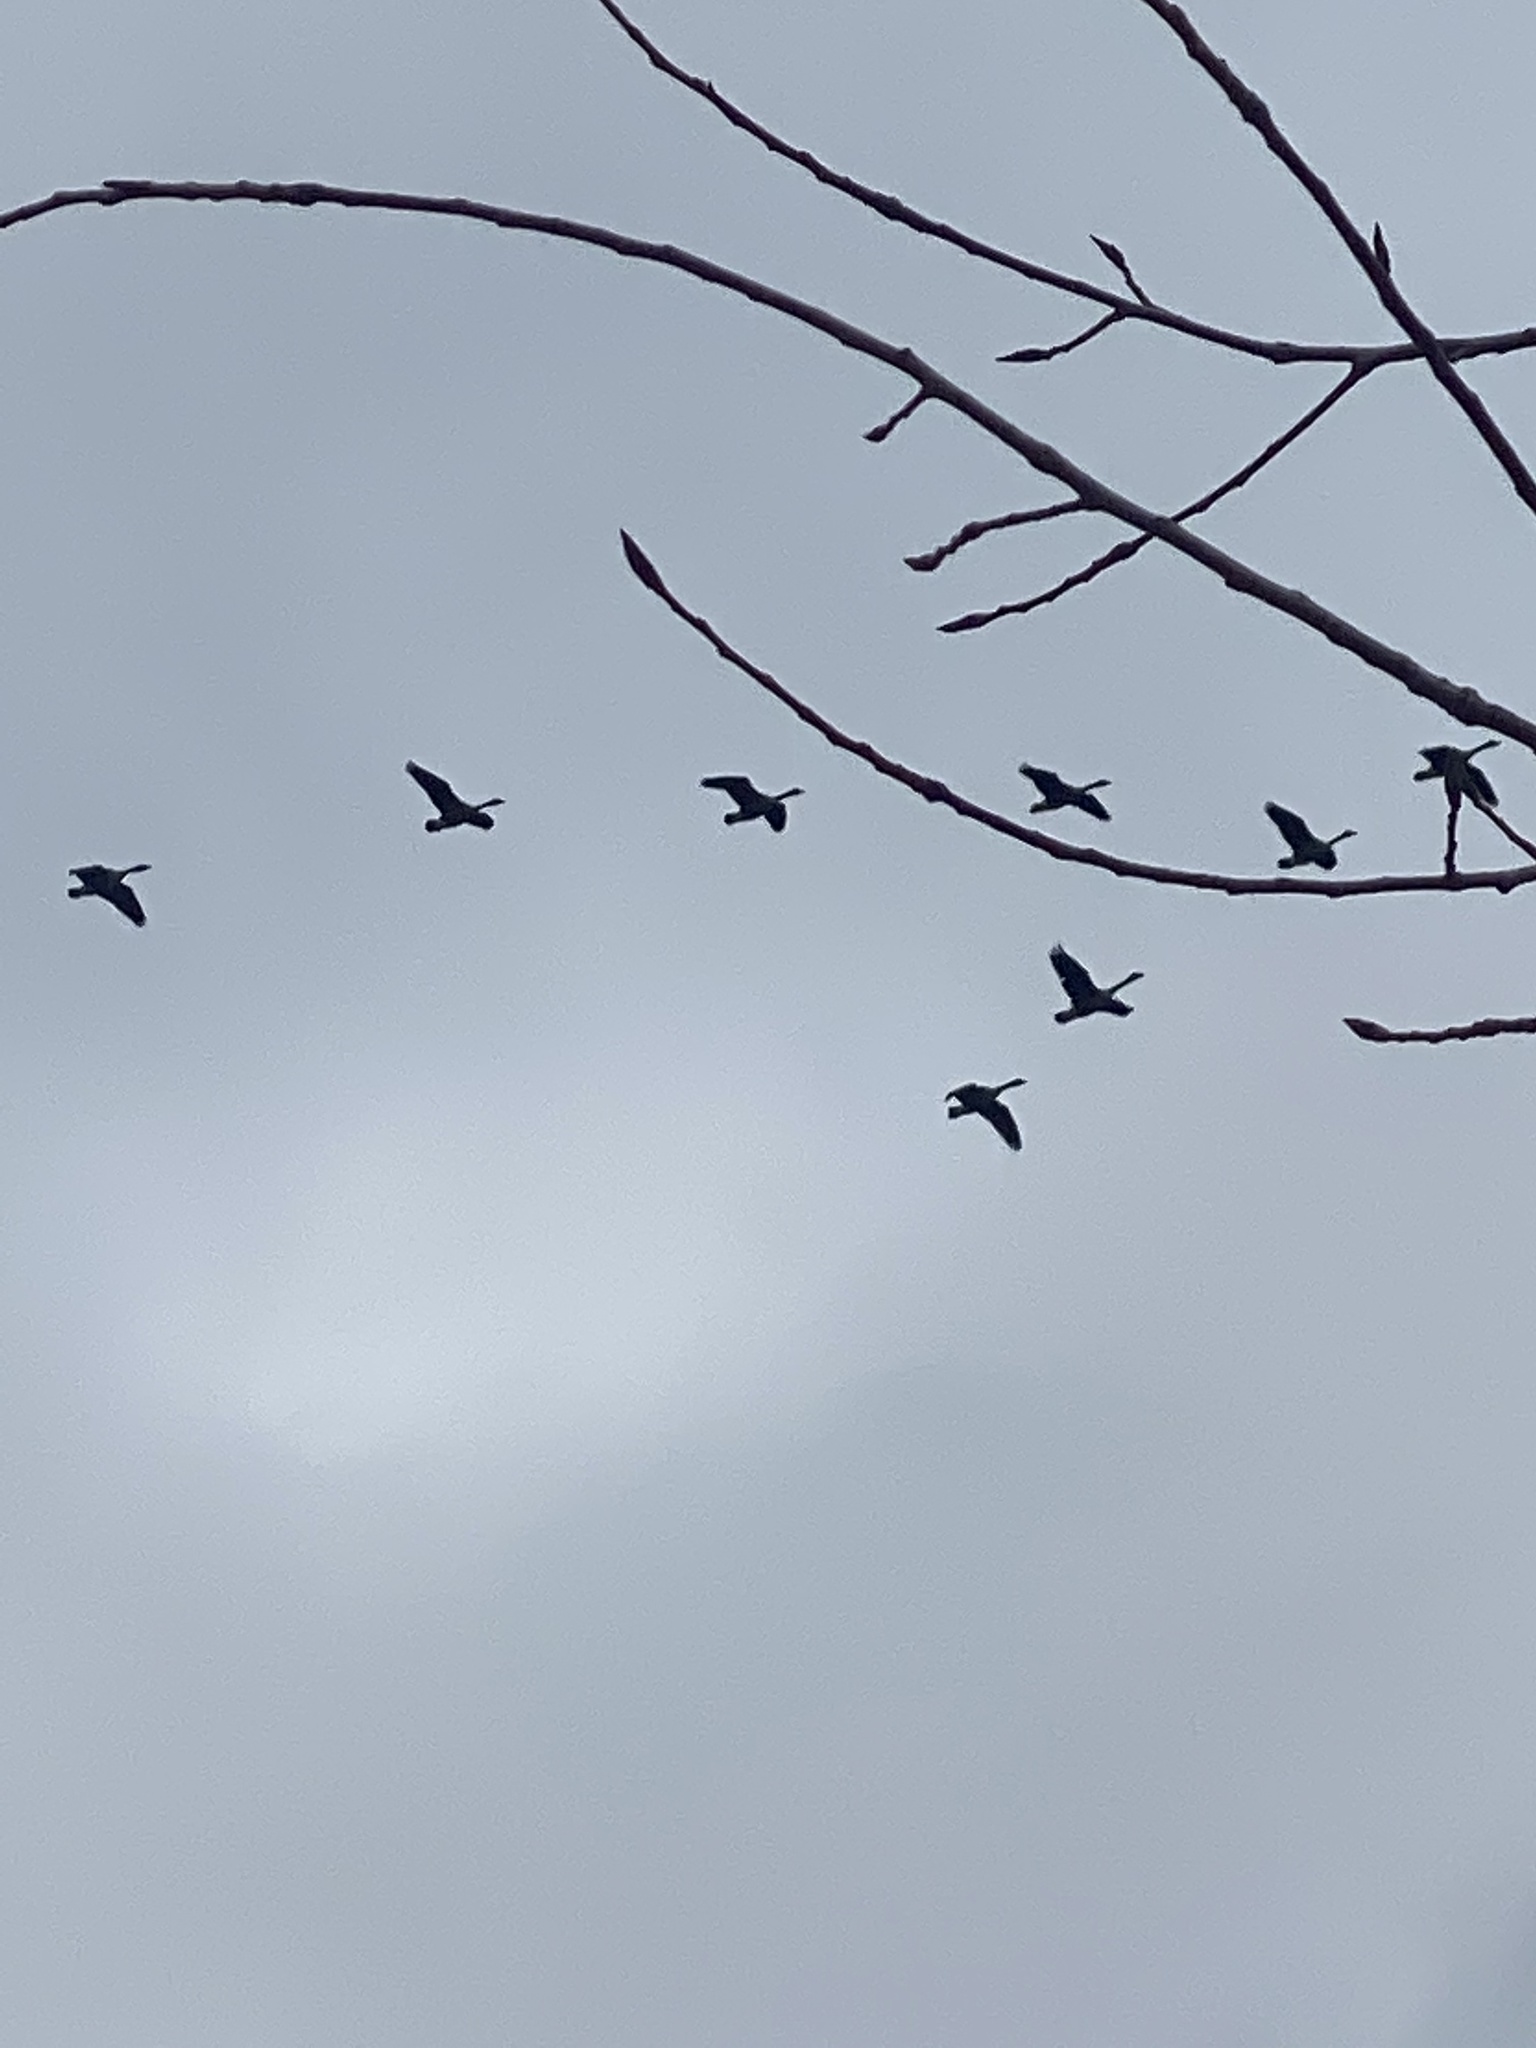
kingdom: Animalia
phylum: Chordata
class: Aves
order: Anseriformes
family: Anatidae
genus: Branta
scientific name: Branta canadensis
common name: Canada goose
